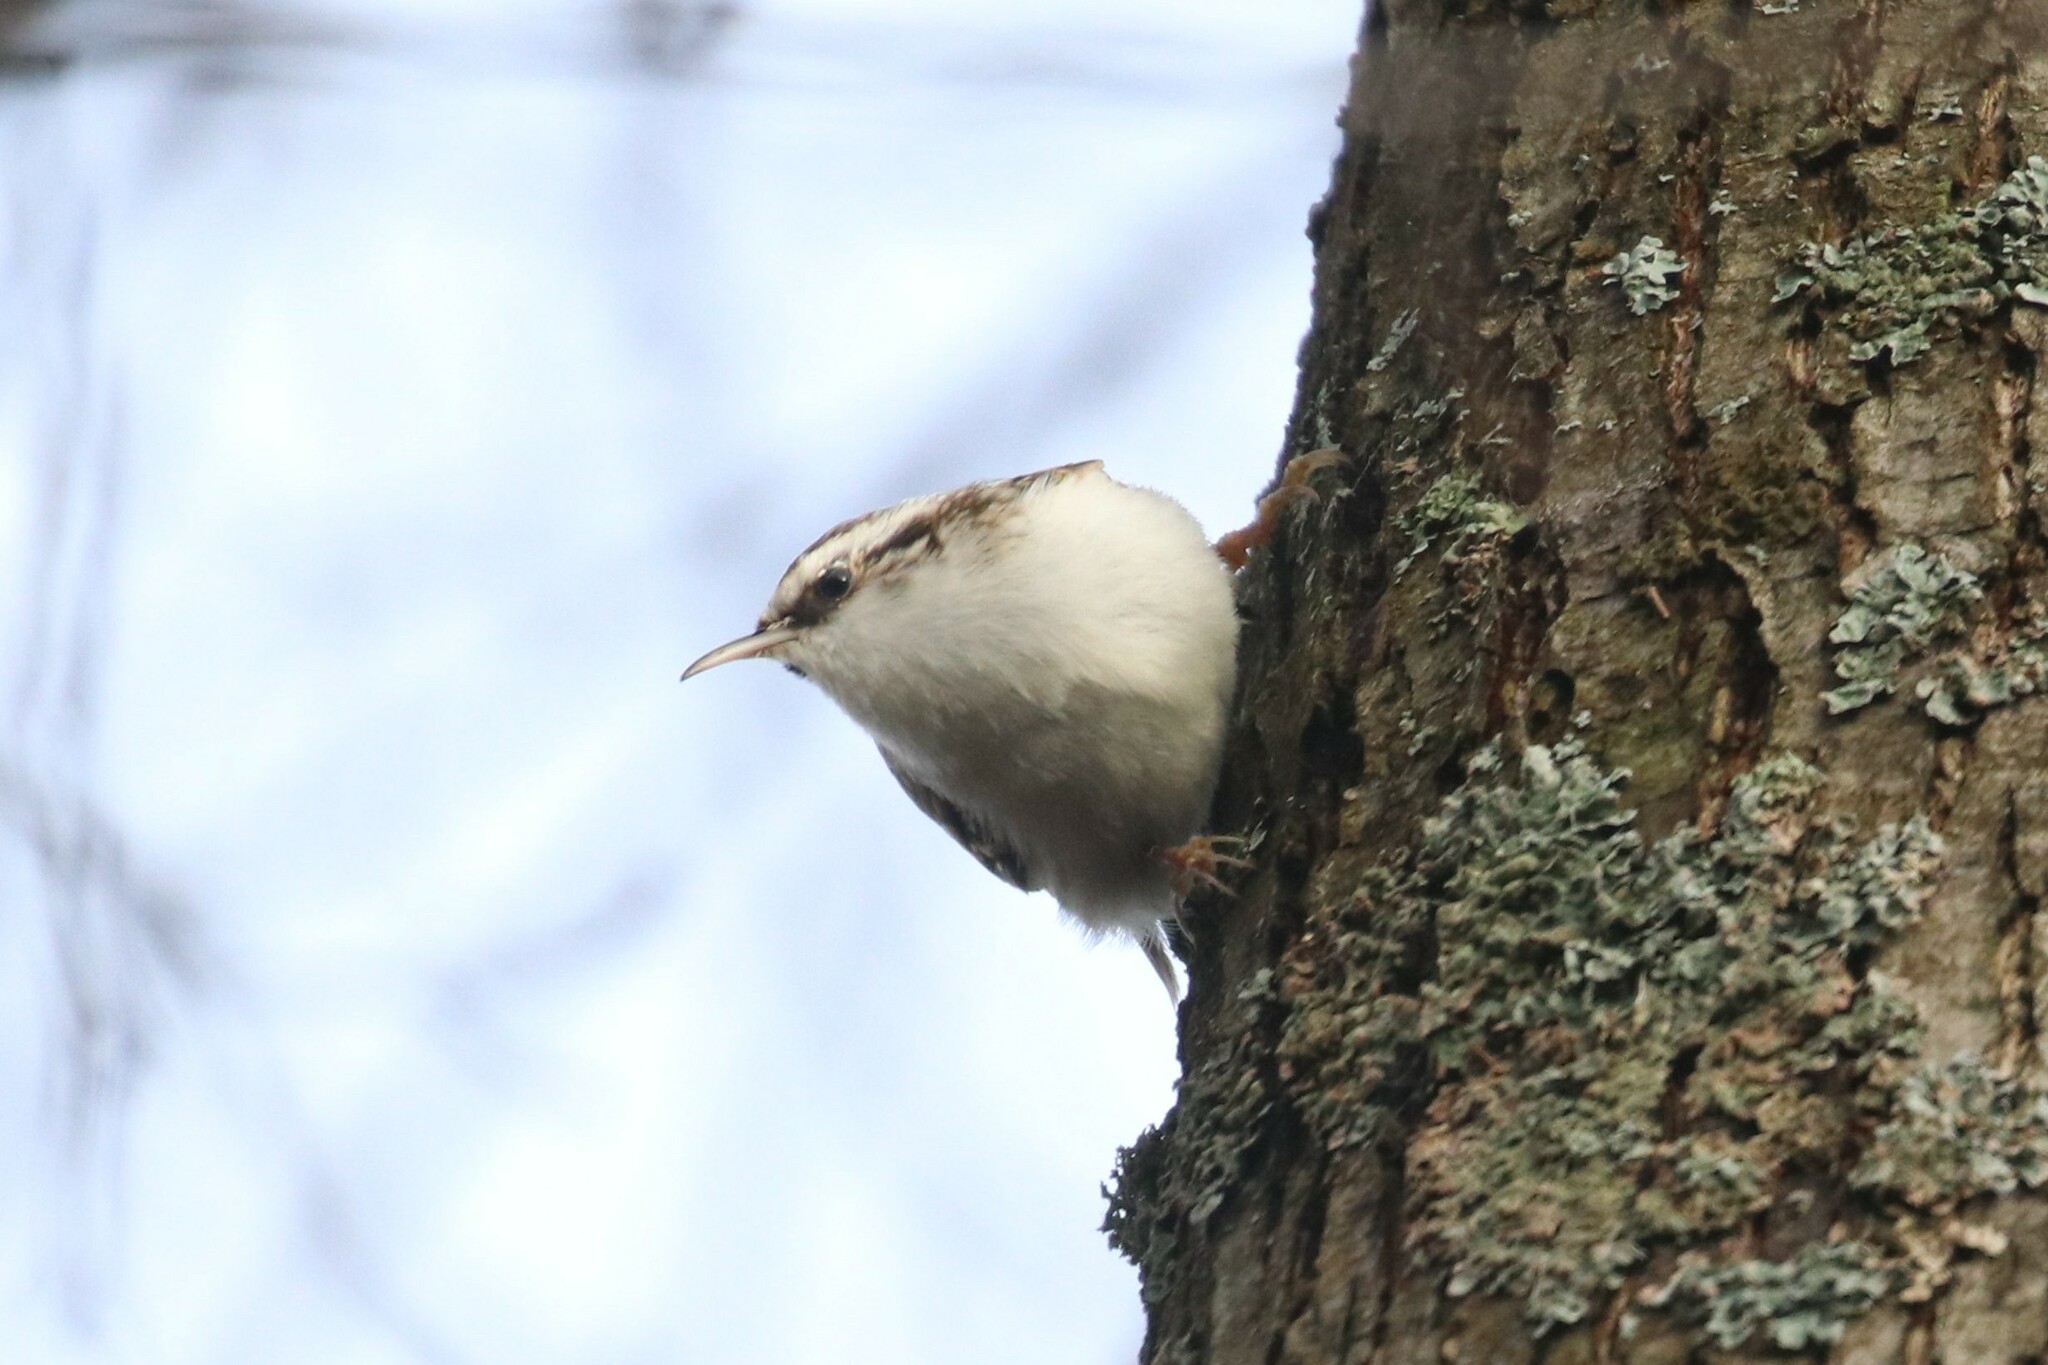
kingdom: Animalia
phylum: Chordata
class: Aves
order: Passeriformes
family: Certhiidae
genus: Certhia
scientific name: Certhia familiaris
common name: Eurasian treecreeper
